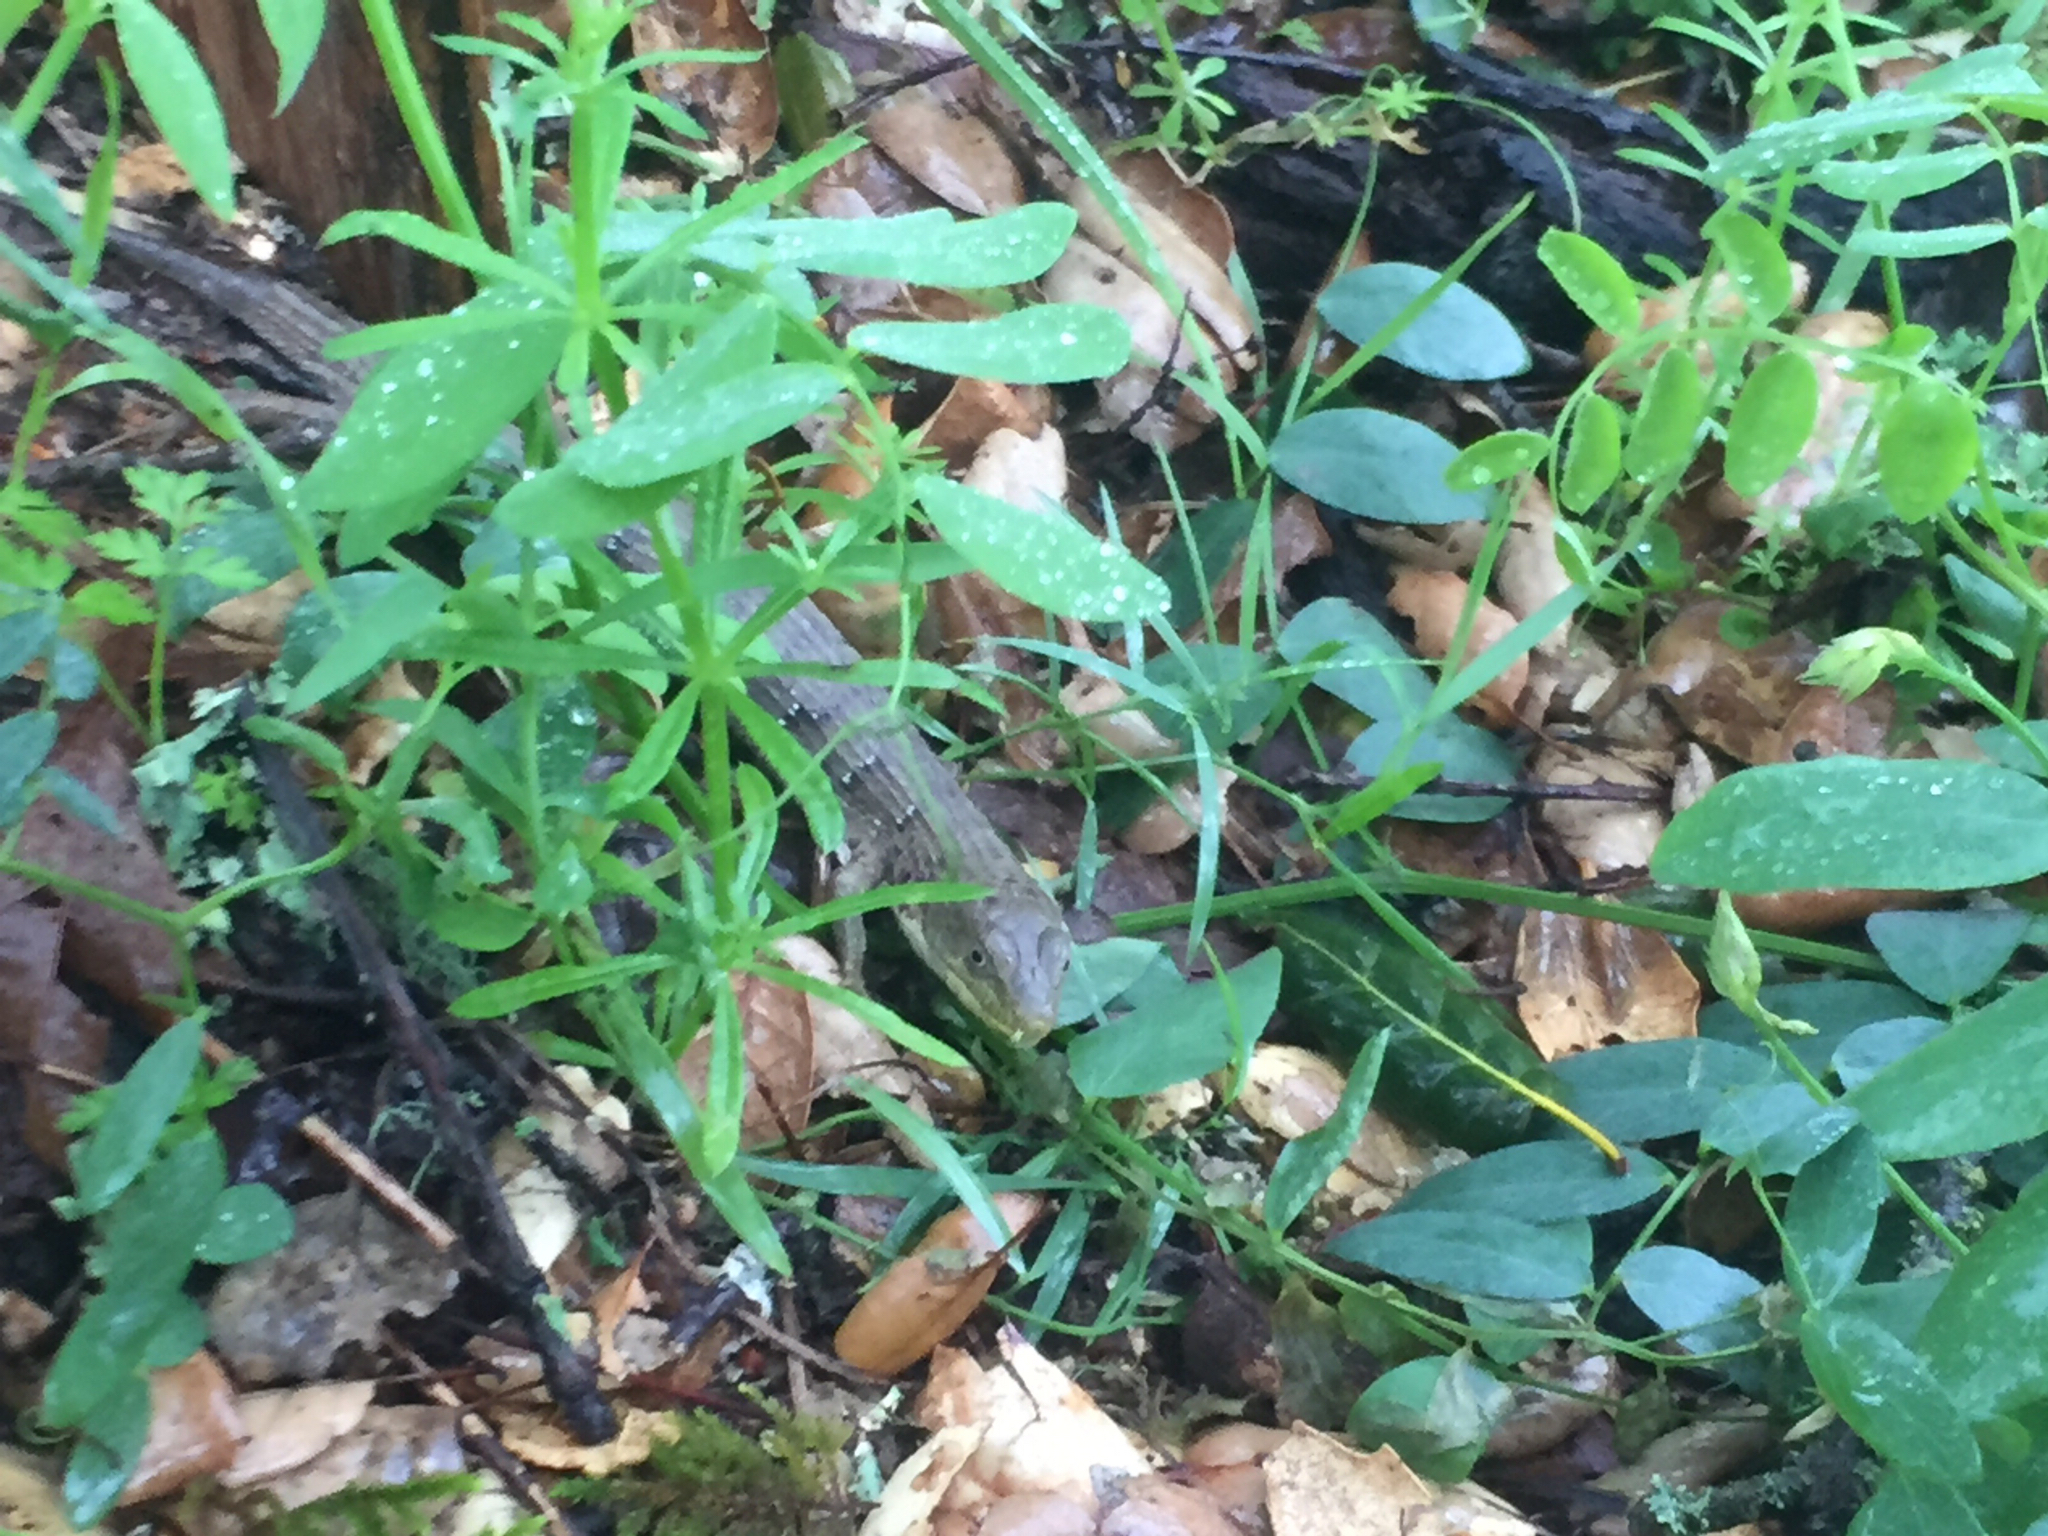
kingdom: Animalia
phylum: Chordata
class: Squamata
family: Anguidae
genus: Elgaria
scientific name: Elgaria multicarinata
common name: Southern alligator lizard
